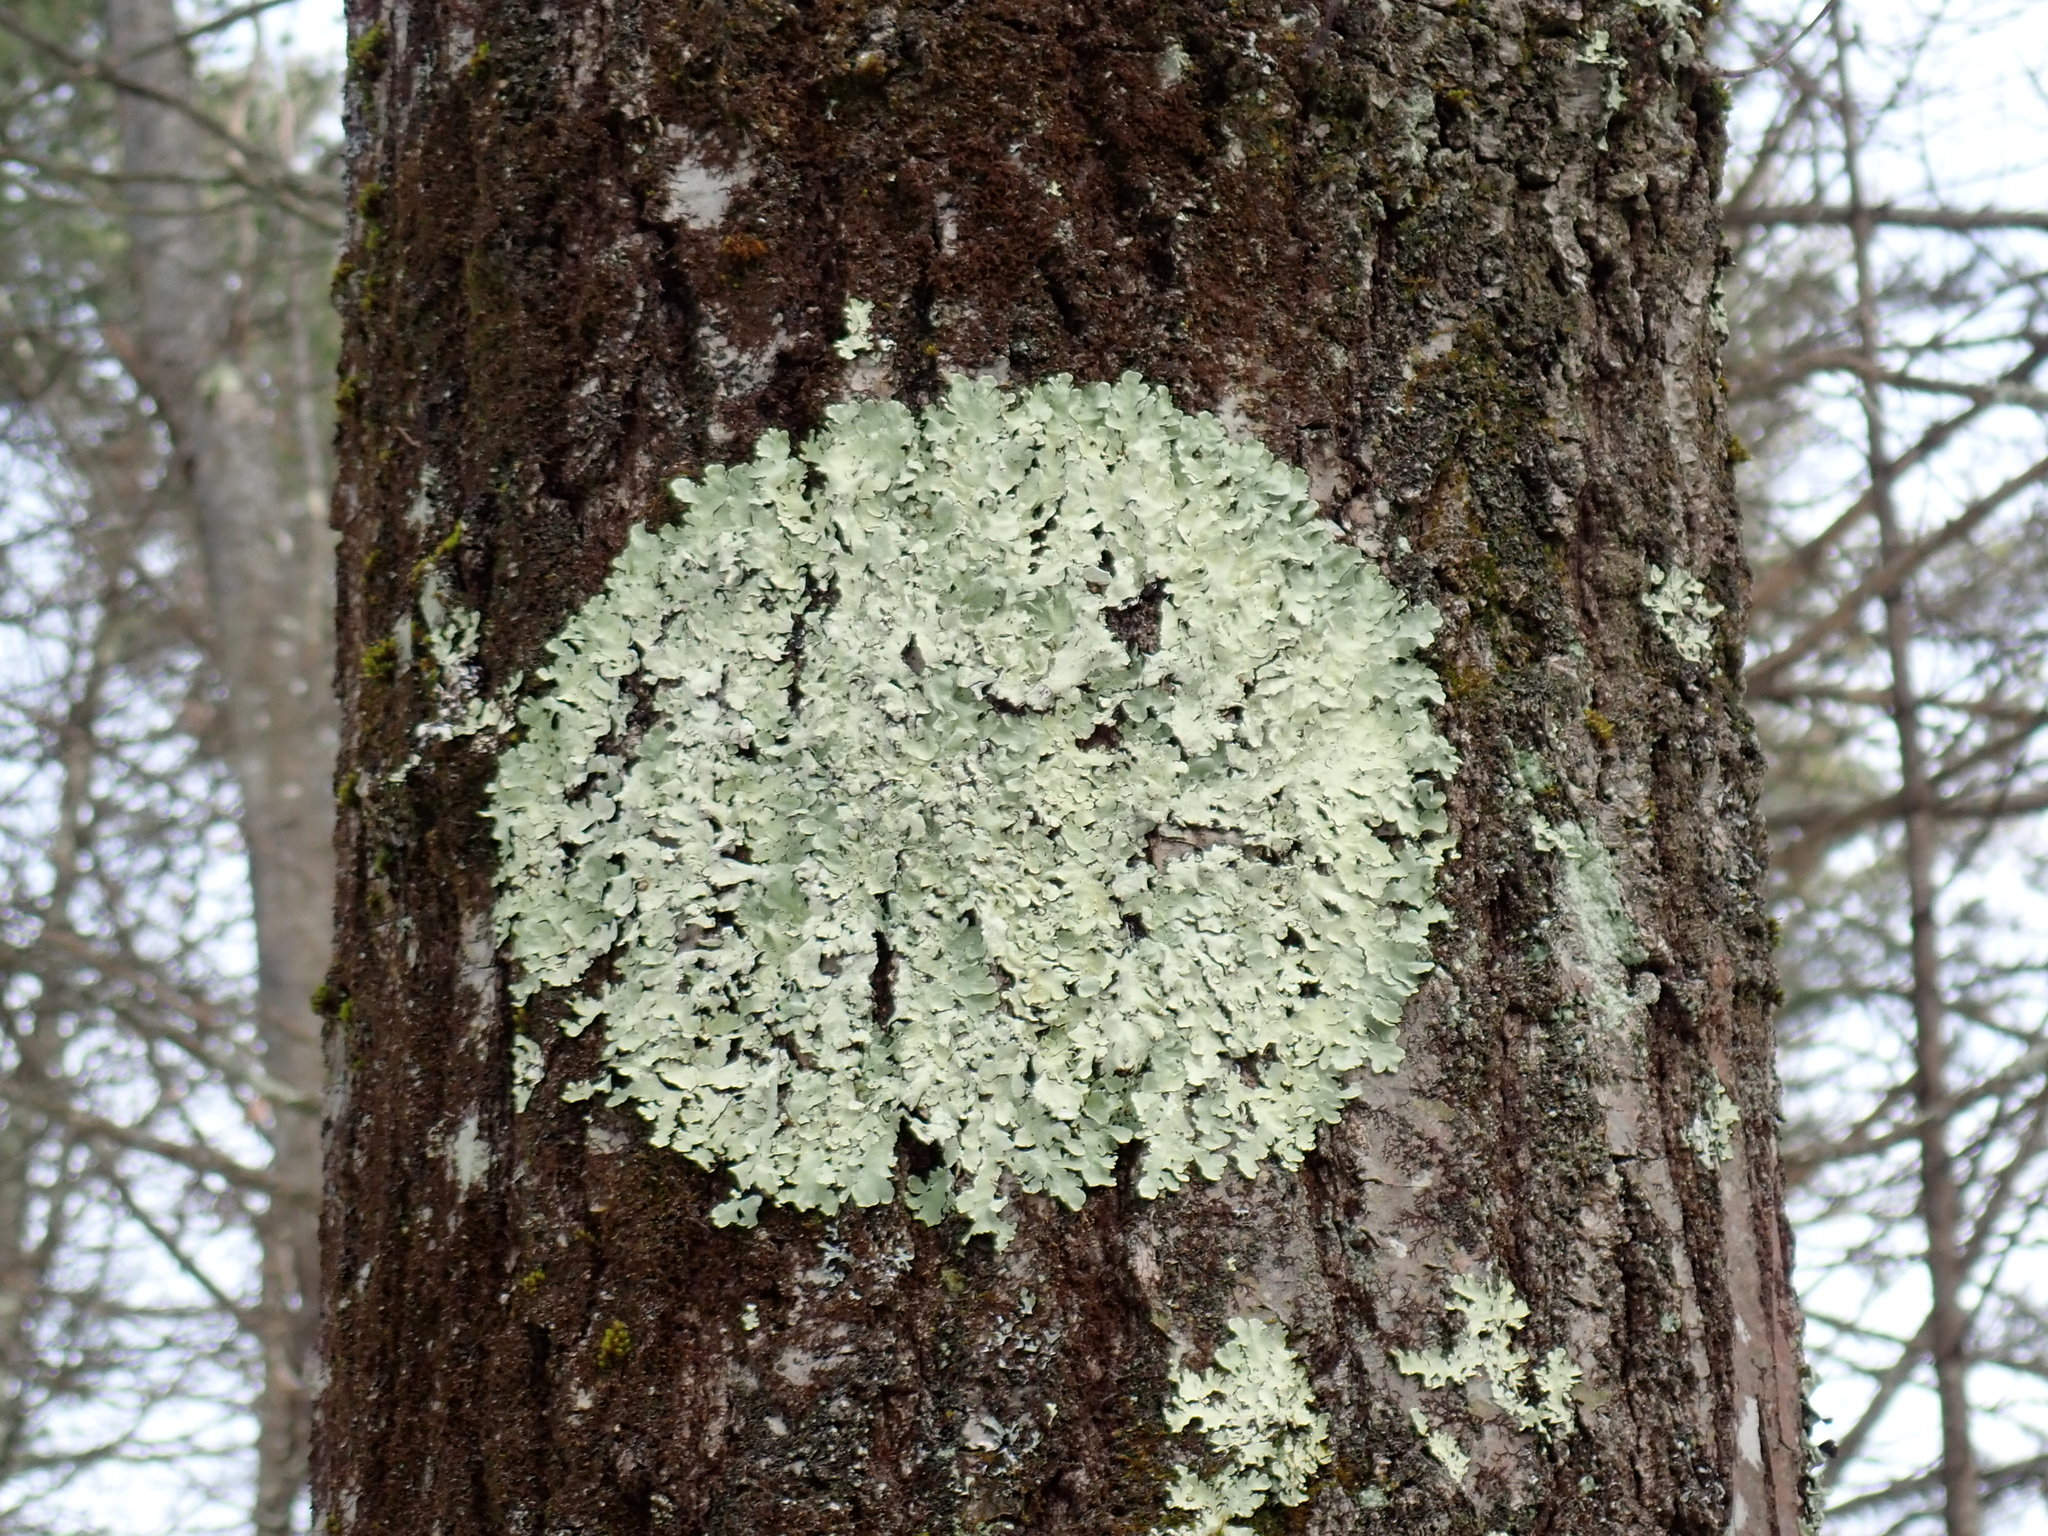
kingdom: Fungi
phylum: Ascomycota
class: Lecanoromycetes
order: Lecanorales
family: Parmeliaceae
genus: Flavoparmelia
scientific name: Flavoparmelia caperata
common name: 40-mile per hour lichen
